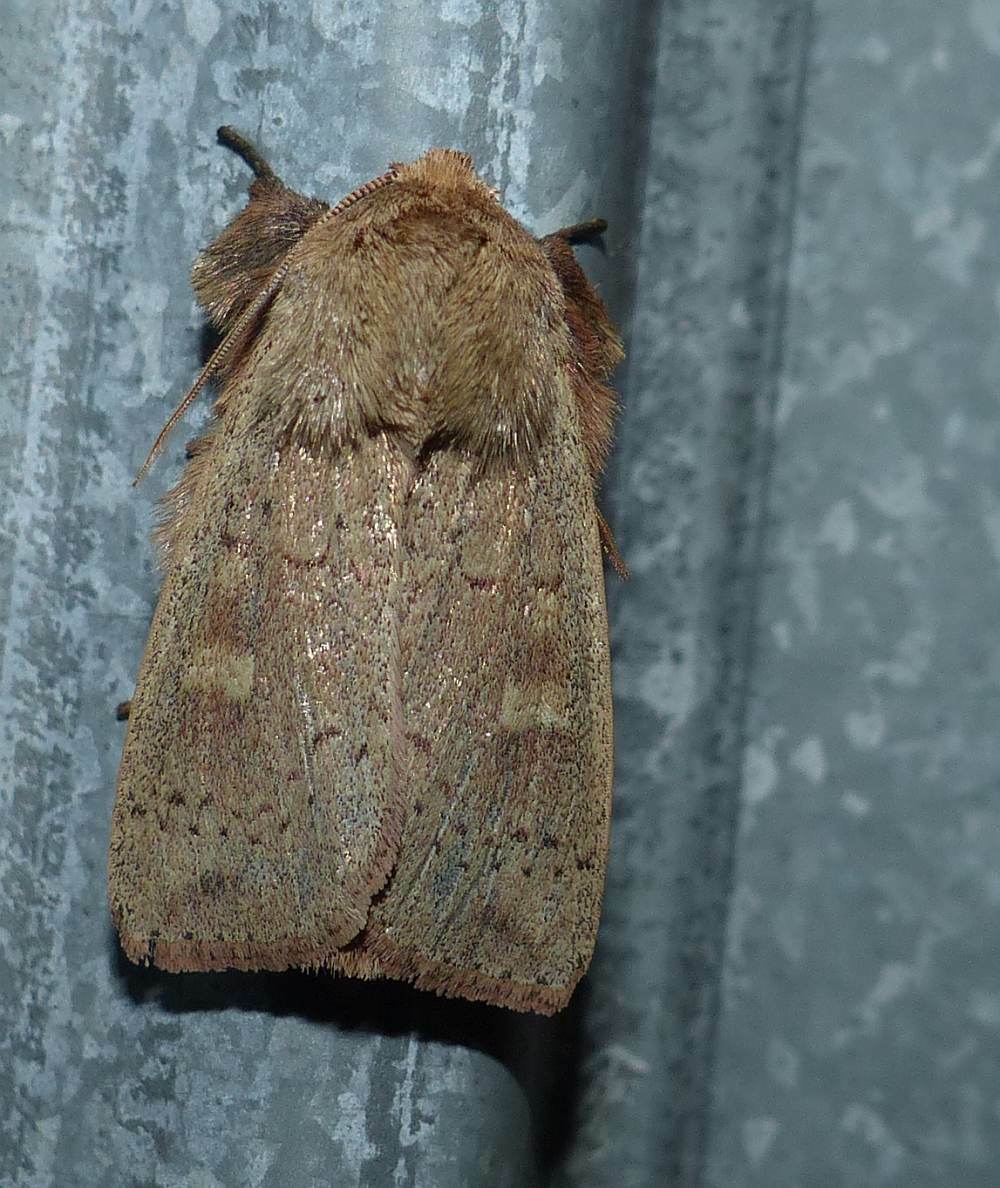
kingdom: Animalia
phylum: Arthropoda
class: Insecta
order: Lepidoptera
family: Noctuidae
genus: Leucania
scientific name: Leucania pseudargyria
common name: False wainscot
